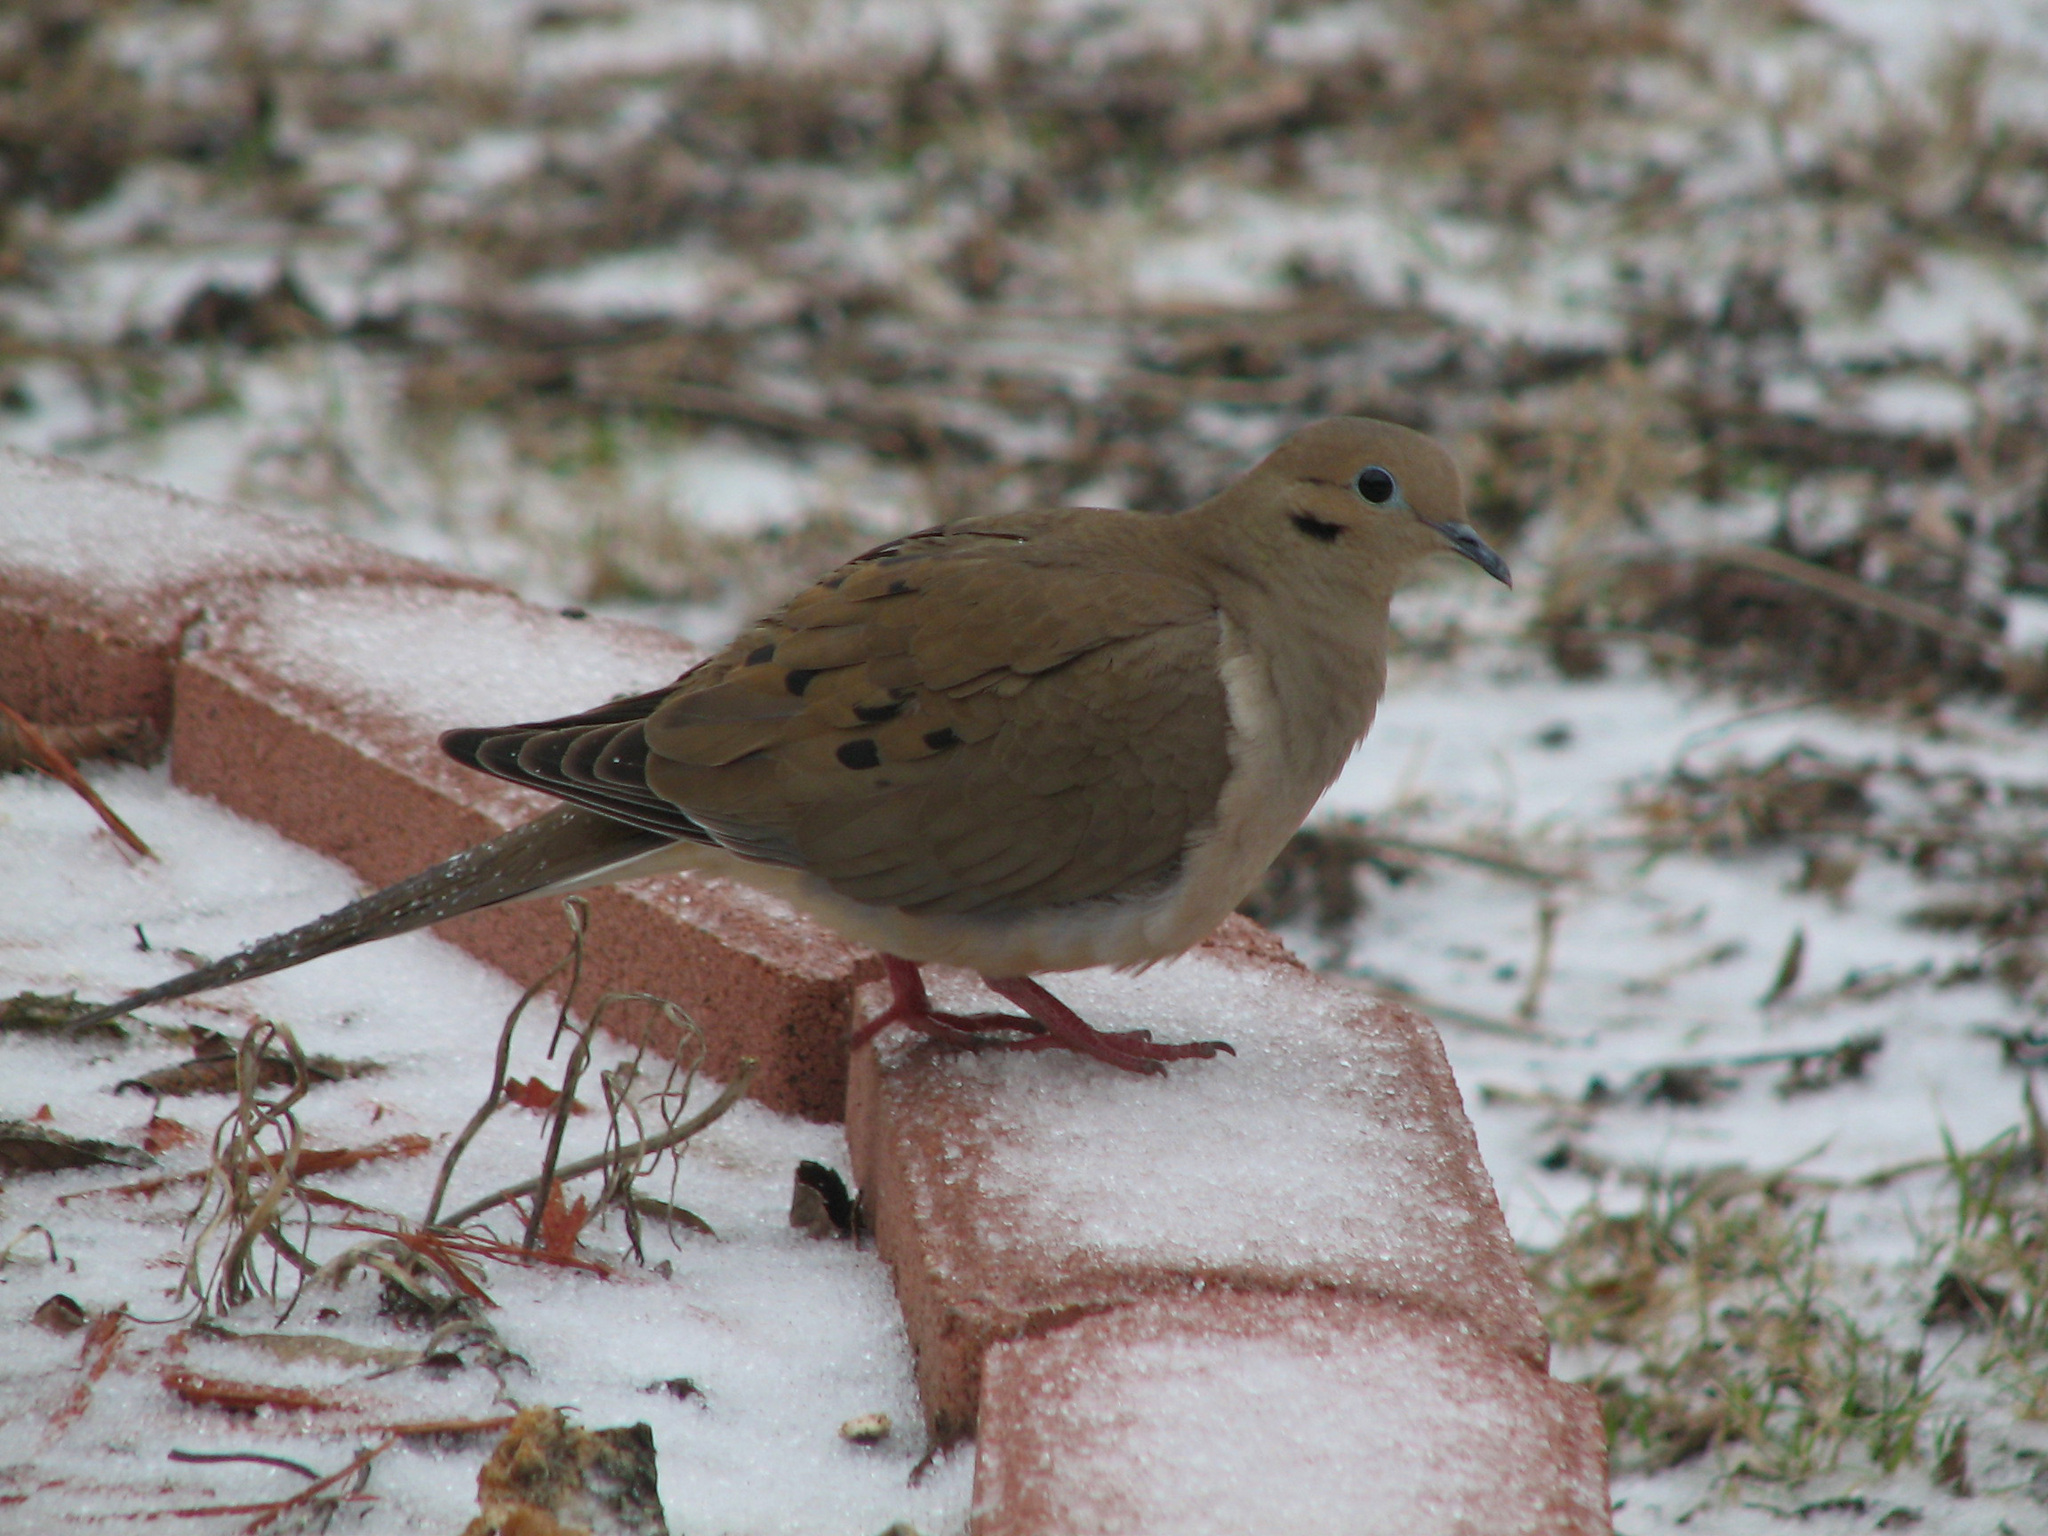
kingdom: Animalia
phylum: Chordata
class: Aves
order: Columbiformes
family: Columbidae
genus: Zenaida
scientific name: Zenaida macroura
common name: Mourning dove
